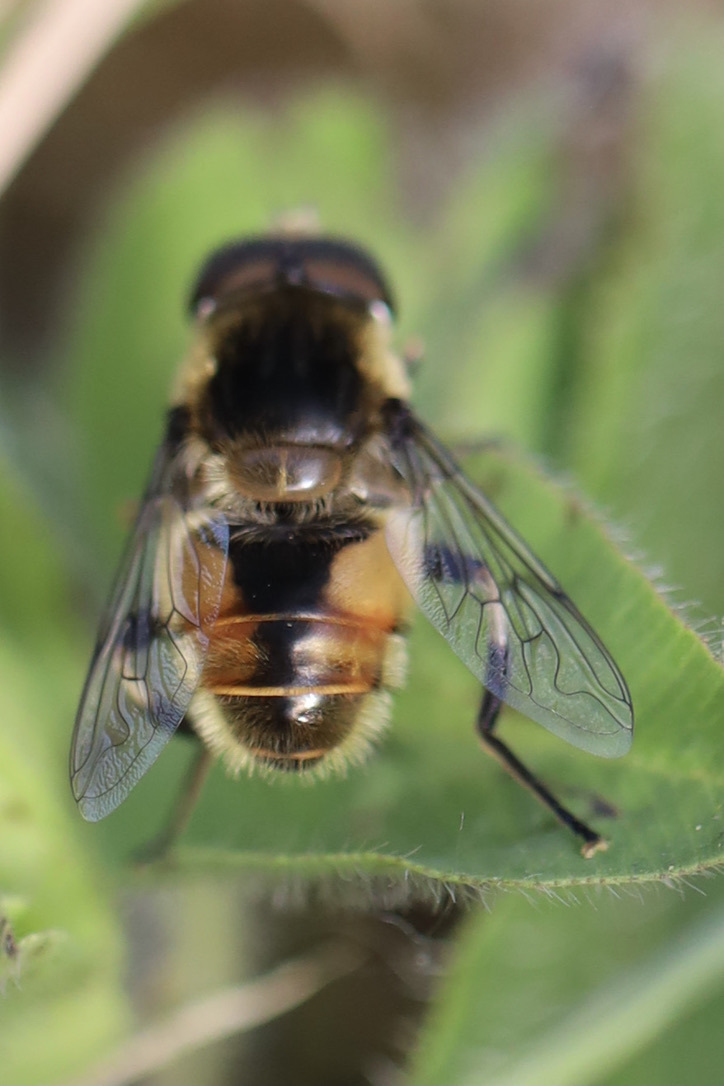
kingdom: Animalia
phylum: Arthropoda
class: Insecta
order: Diptera
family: Syrphidae
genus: Eristalis
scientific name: Eristalis anthophorina
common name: Orange-spotted drone fly
